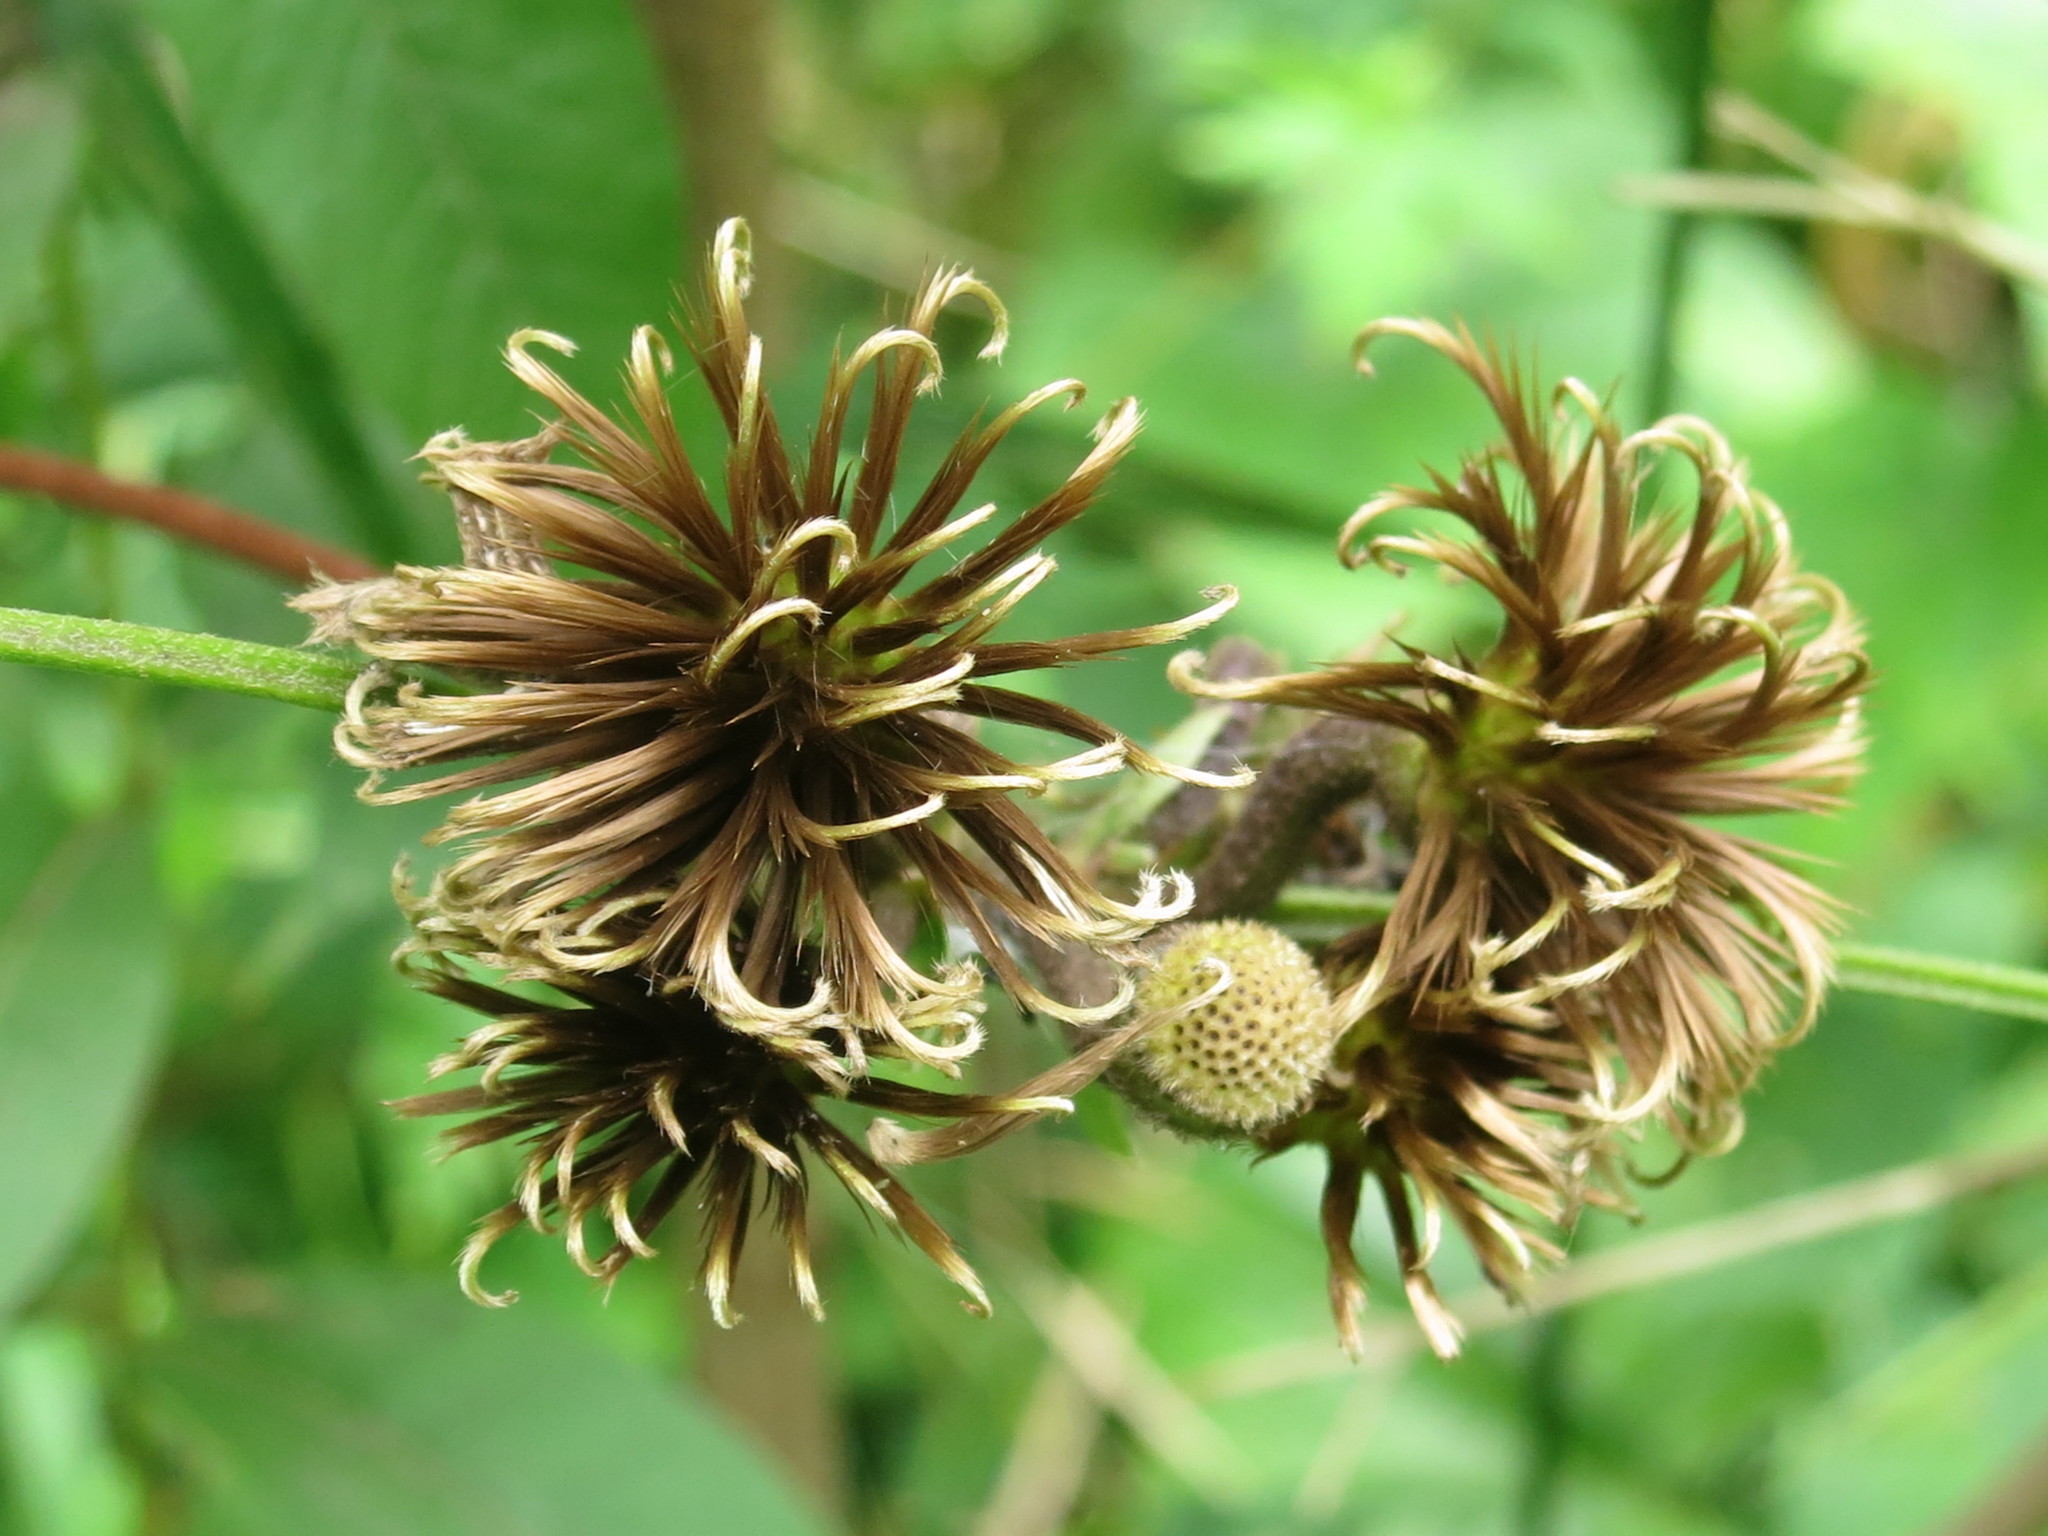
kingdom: Plantae
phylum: Tracheophyta
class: Magnoliopsida
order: Ranunculales
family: Ranunculaceae
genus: Clematis
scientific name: Clematis fusca
